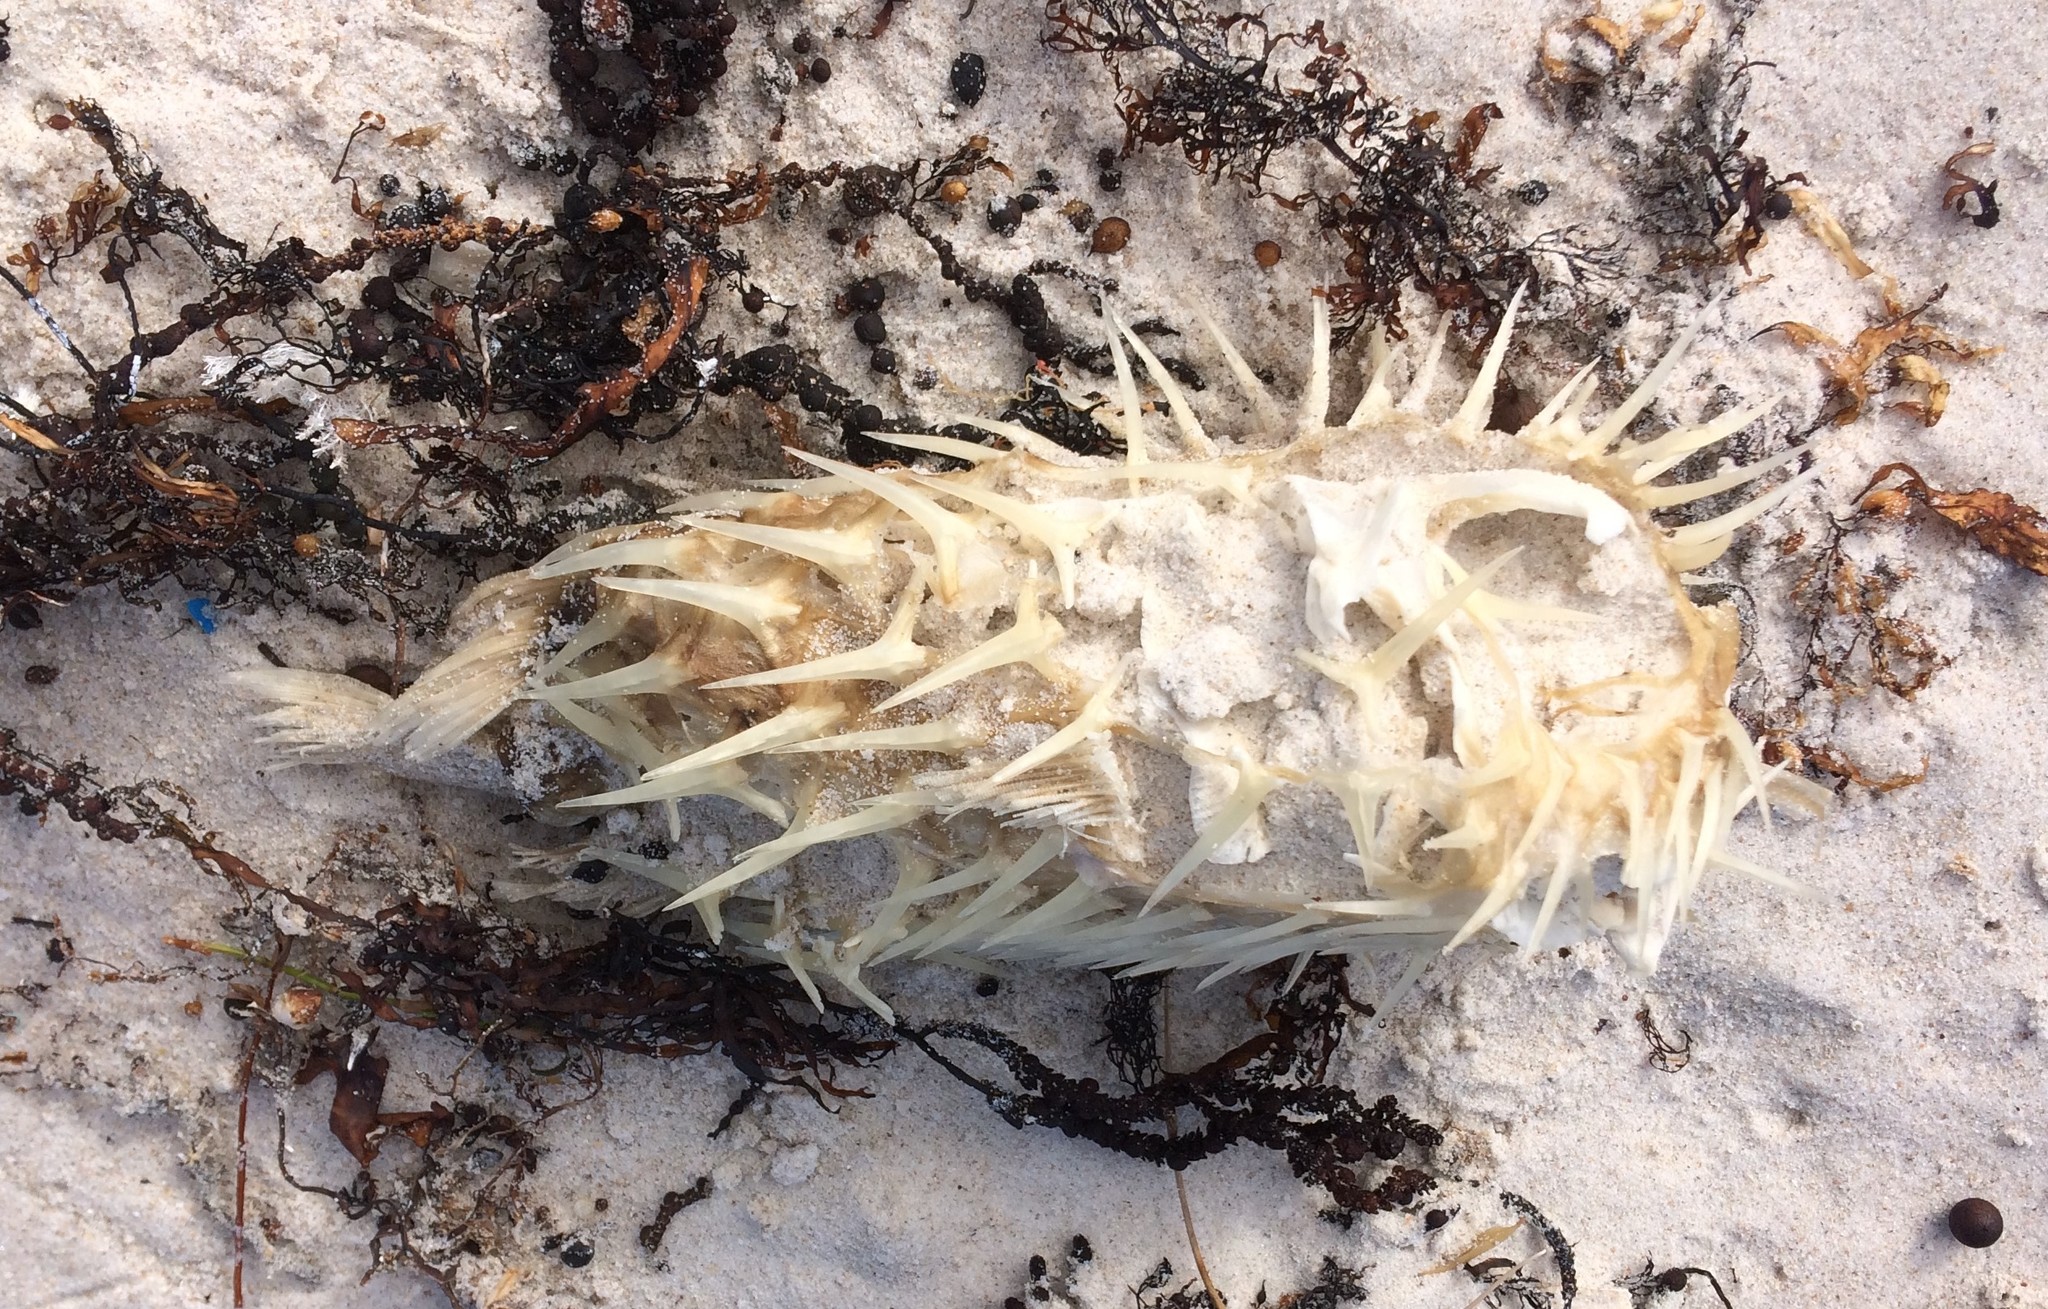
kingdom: Animalia
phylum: Chordata
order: Tetraodontiformes
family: Diodontidae
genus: Diodon
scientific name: Diodon nicthemerus
